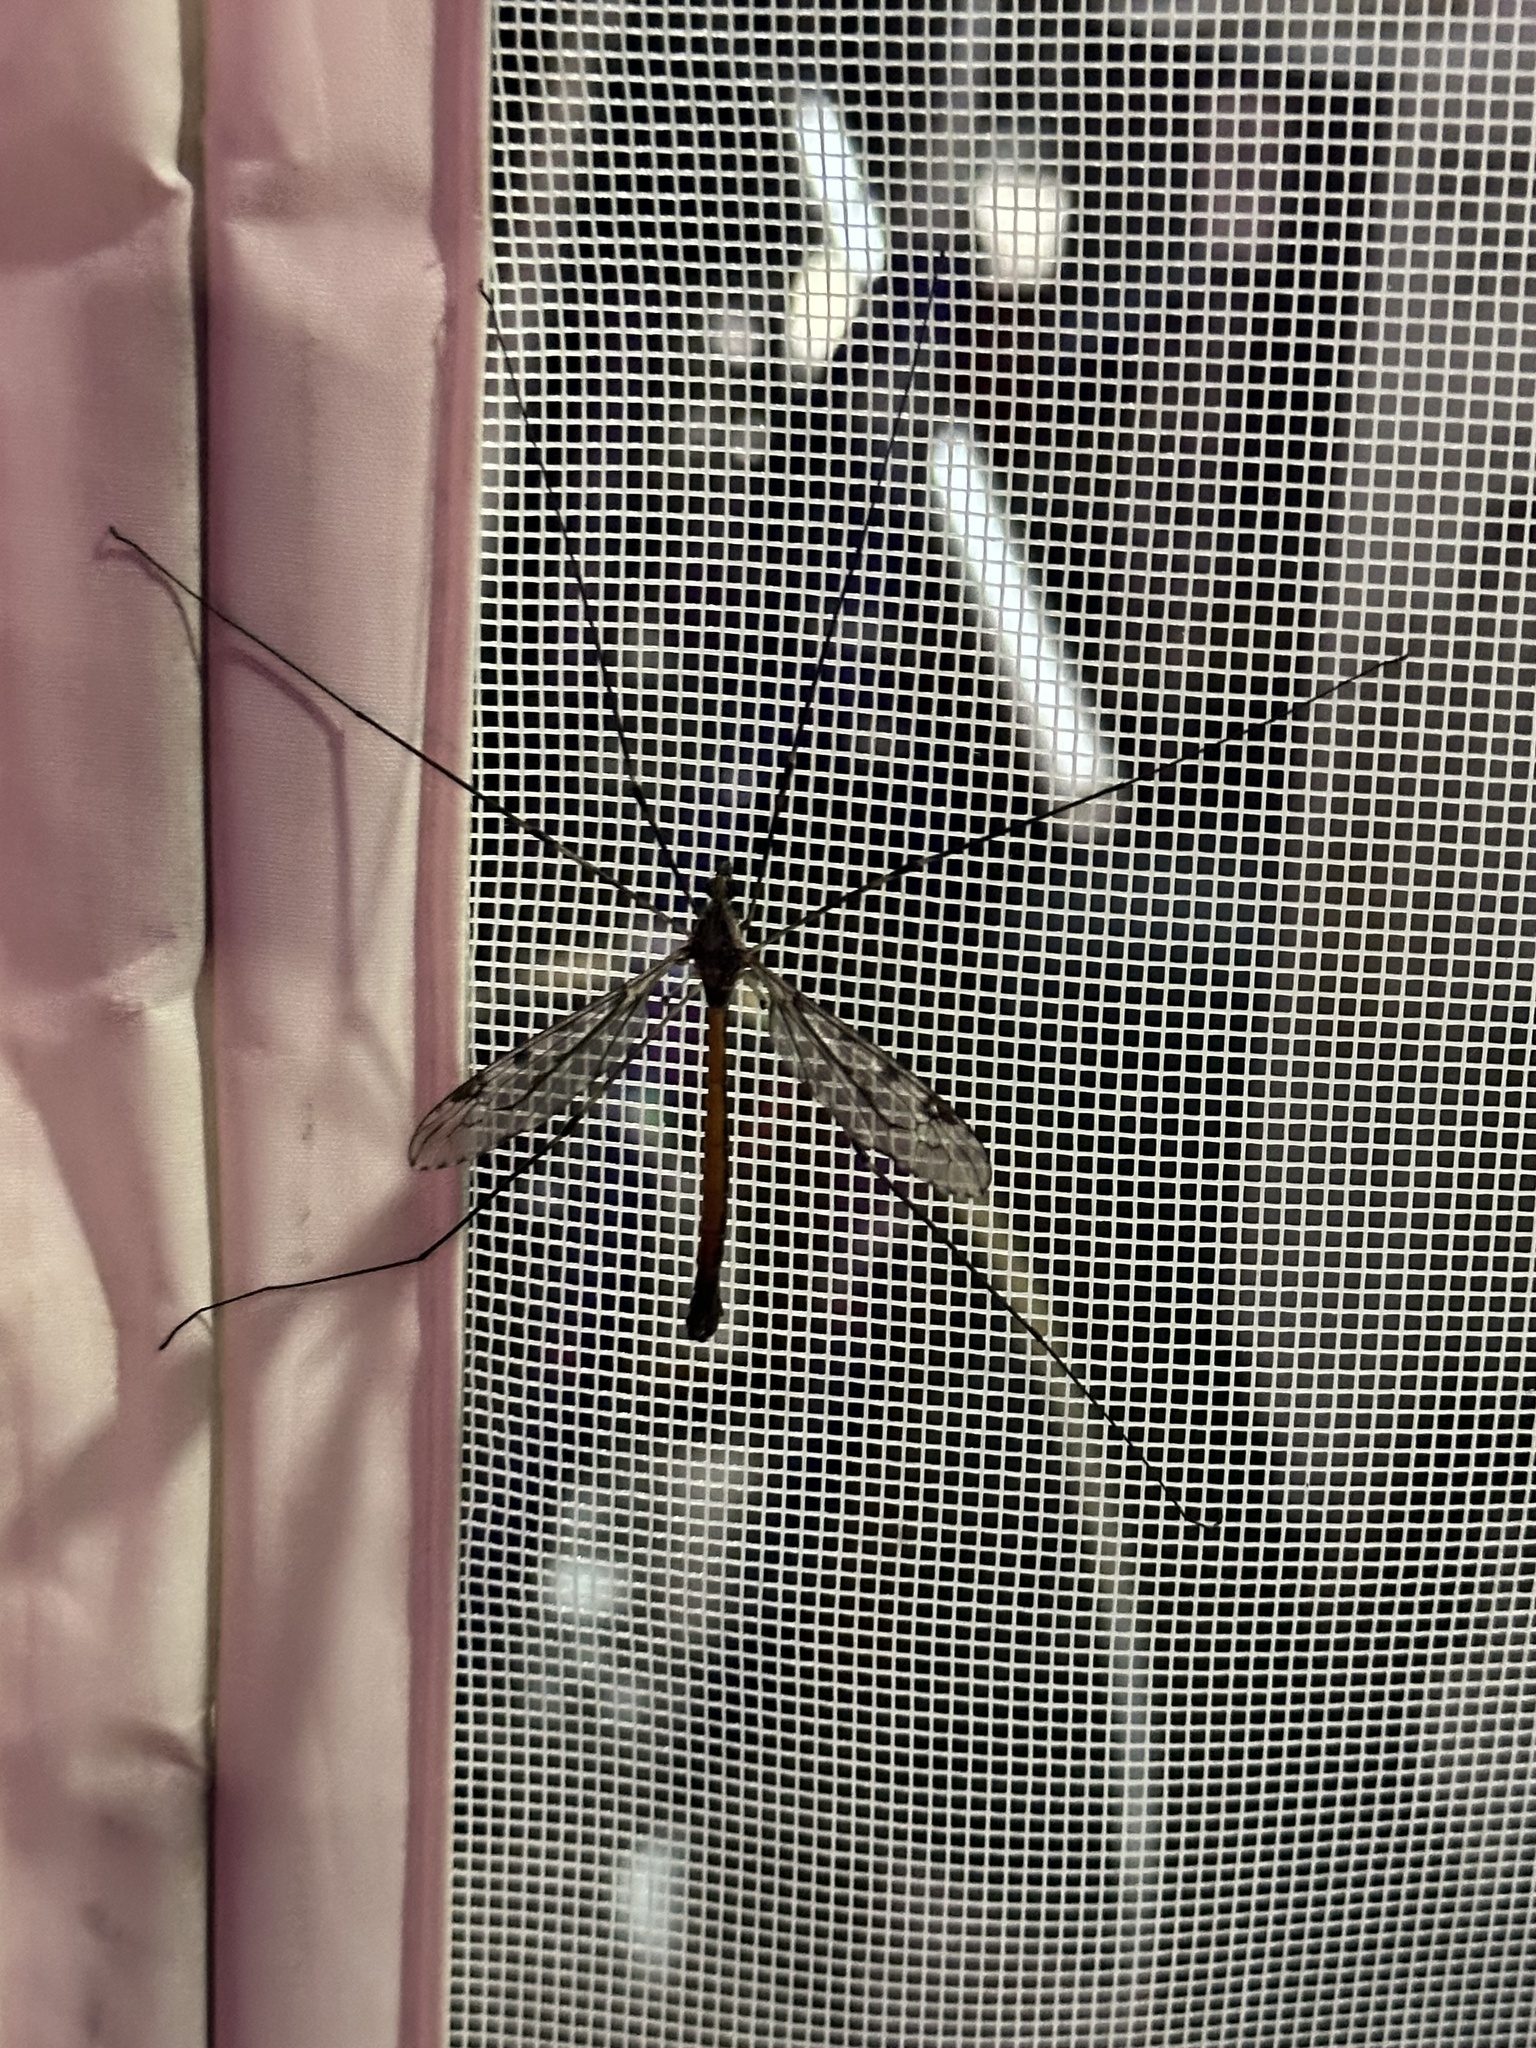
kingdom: Animalia
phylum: Arthropoda
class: Insecta
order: Diptera
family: Tipulidae
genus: Tipula
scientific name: Tipula abdominalis
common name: Giant crane fly
